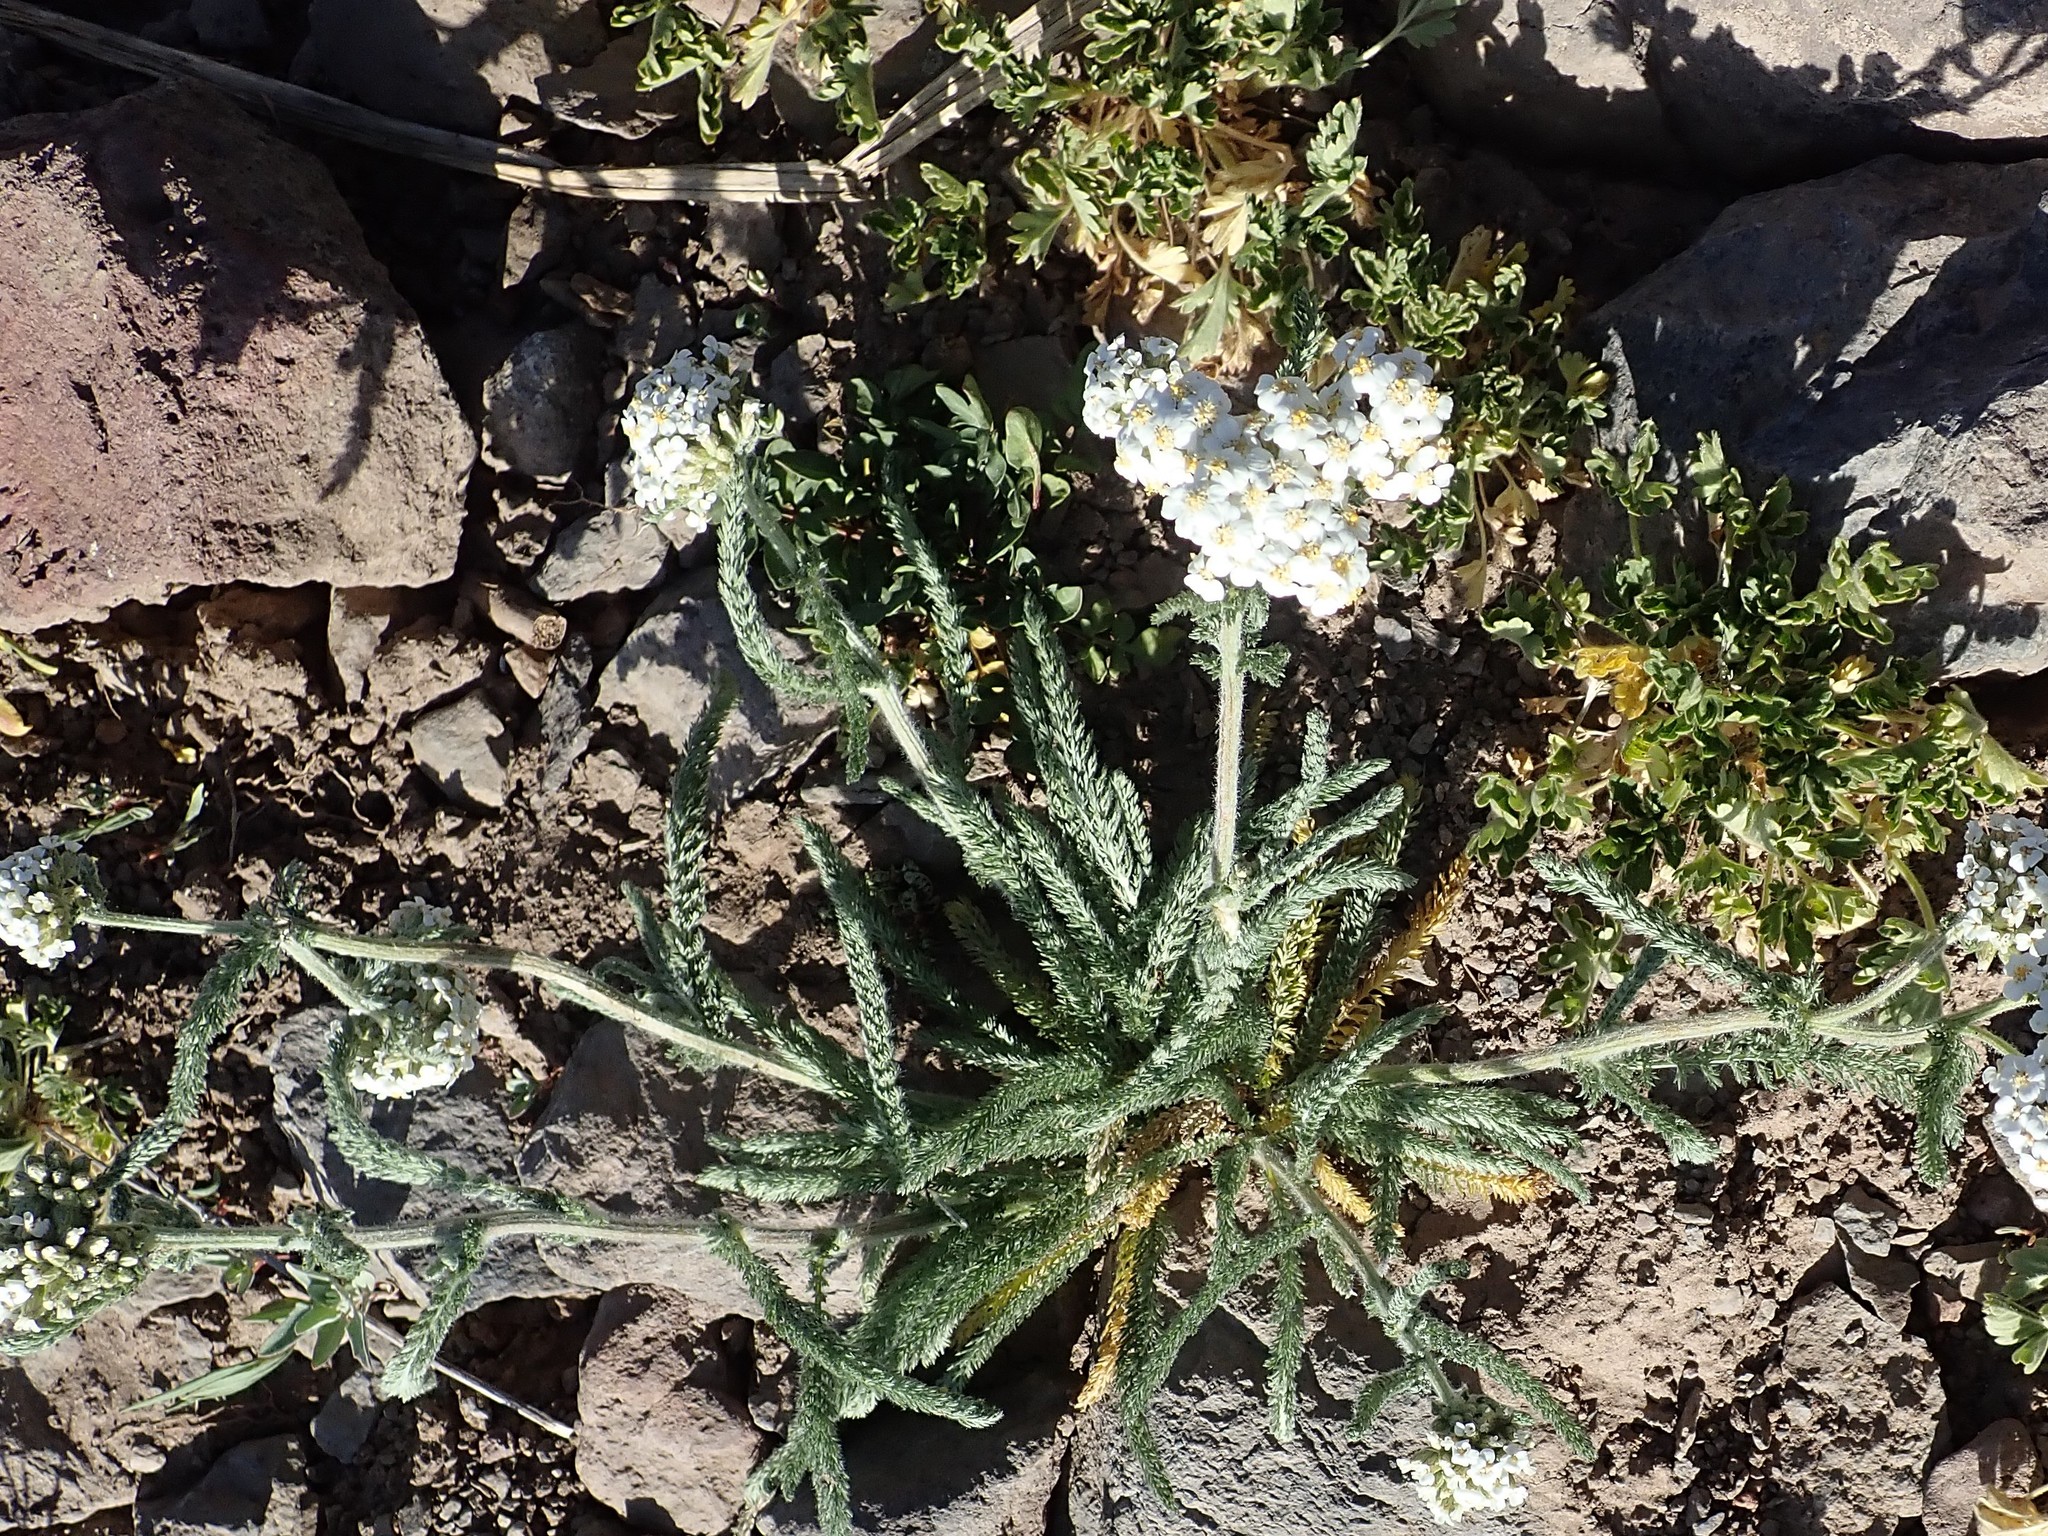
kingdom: Plantae
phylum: Tracheophyta
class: Magnoliopsida
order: Asterales
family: Asteraceae
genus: Achillea
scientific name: Achillea millefolium
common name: Yarrow
